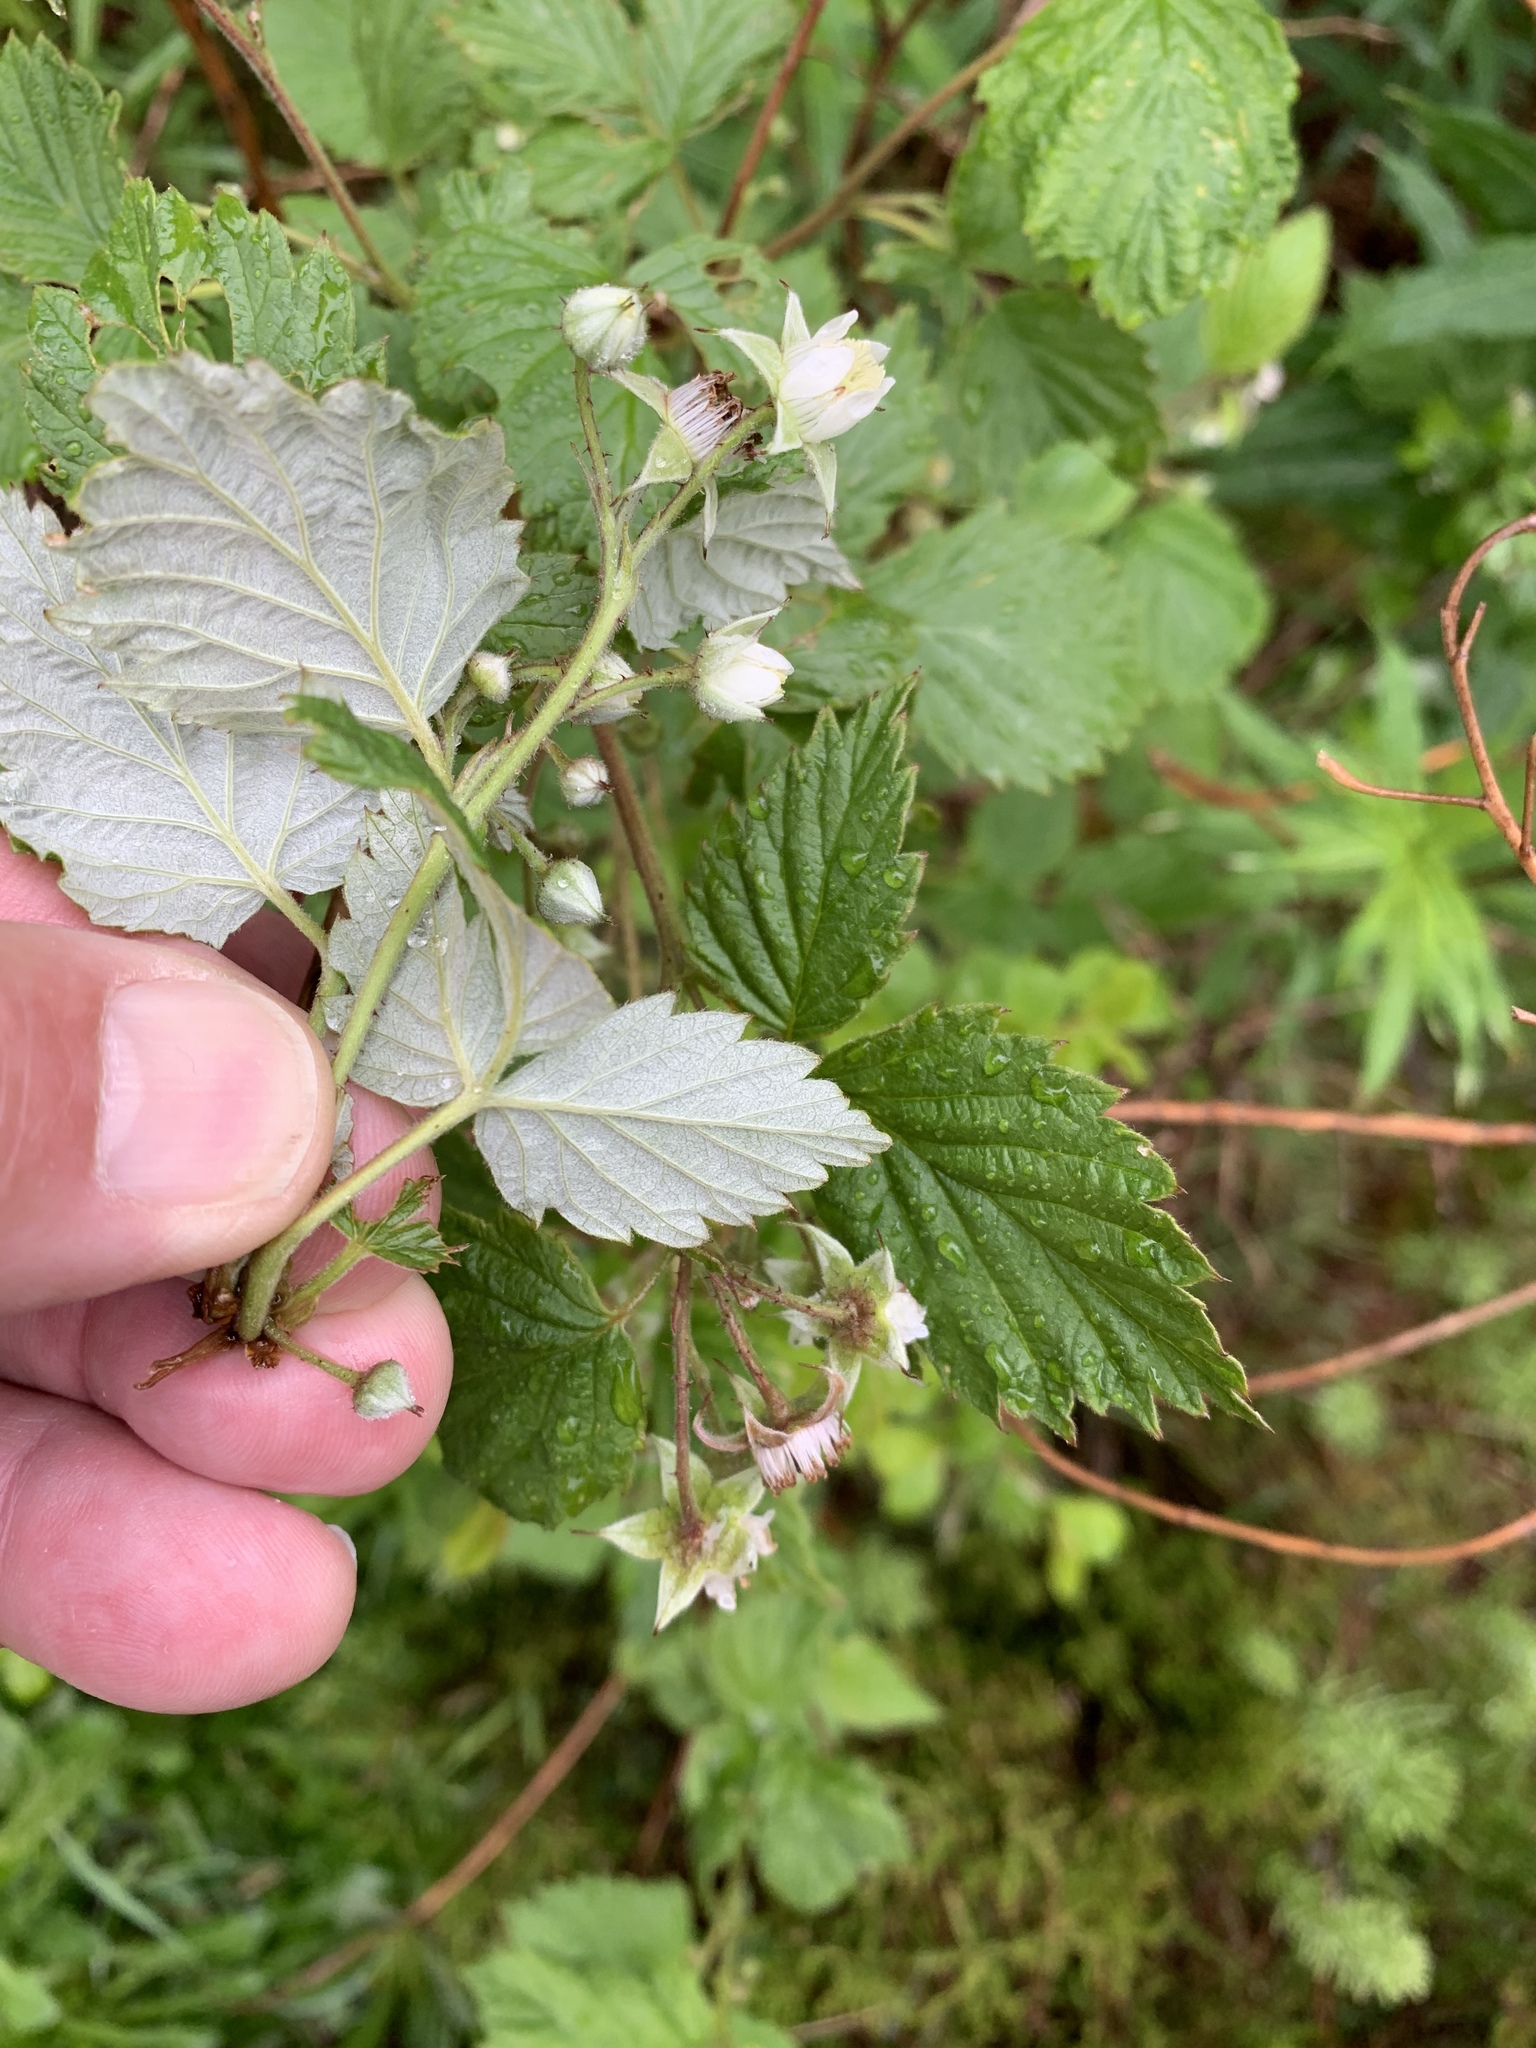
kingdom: Plantae
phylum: Tracheophyta
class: Magnoliopsida
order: Rosales
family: Rosaceae
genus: Rubus
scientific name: Rubus idaeus
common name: Raspberry
